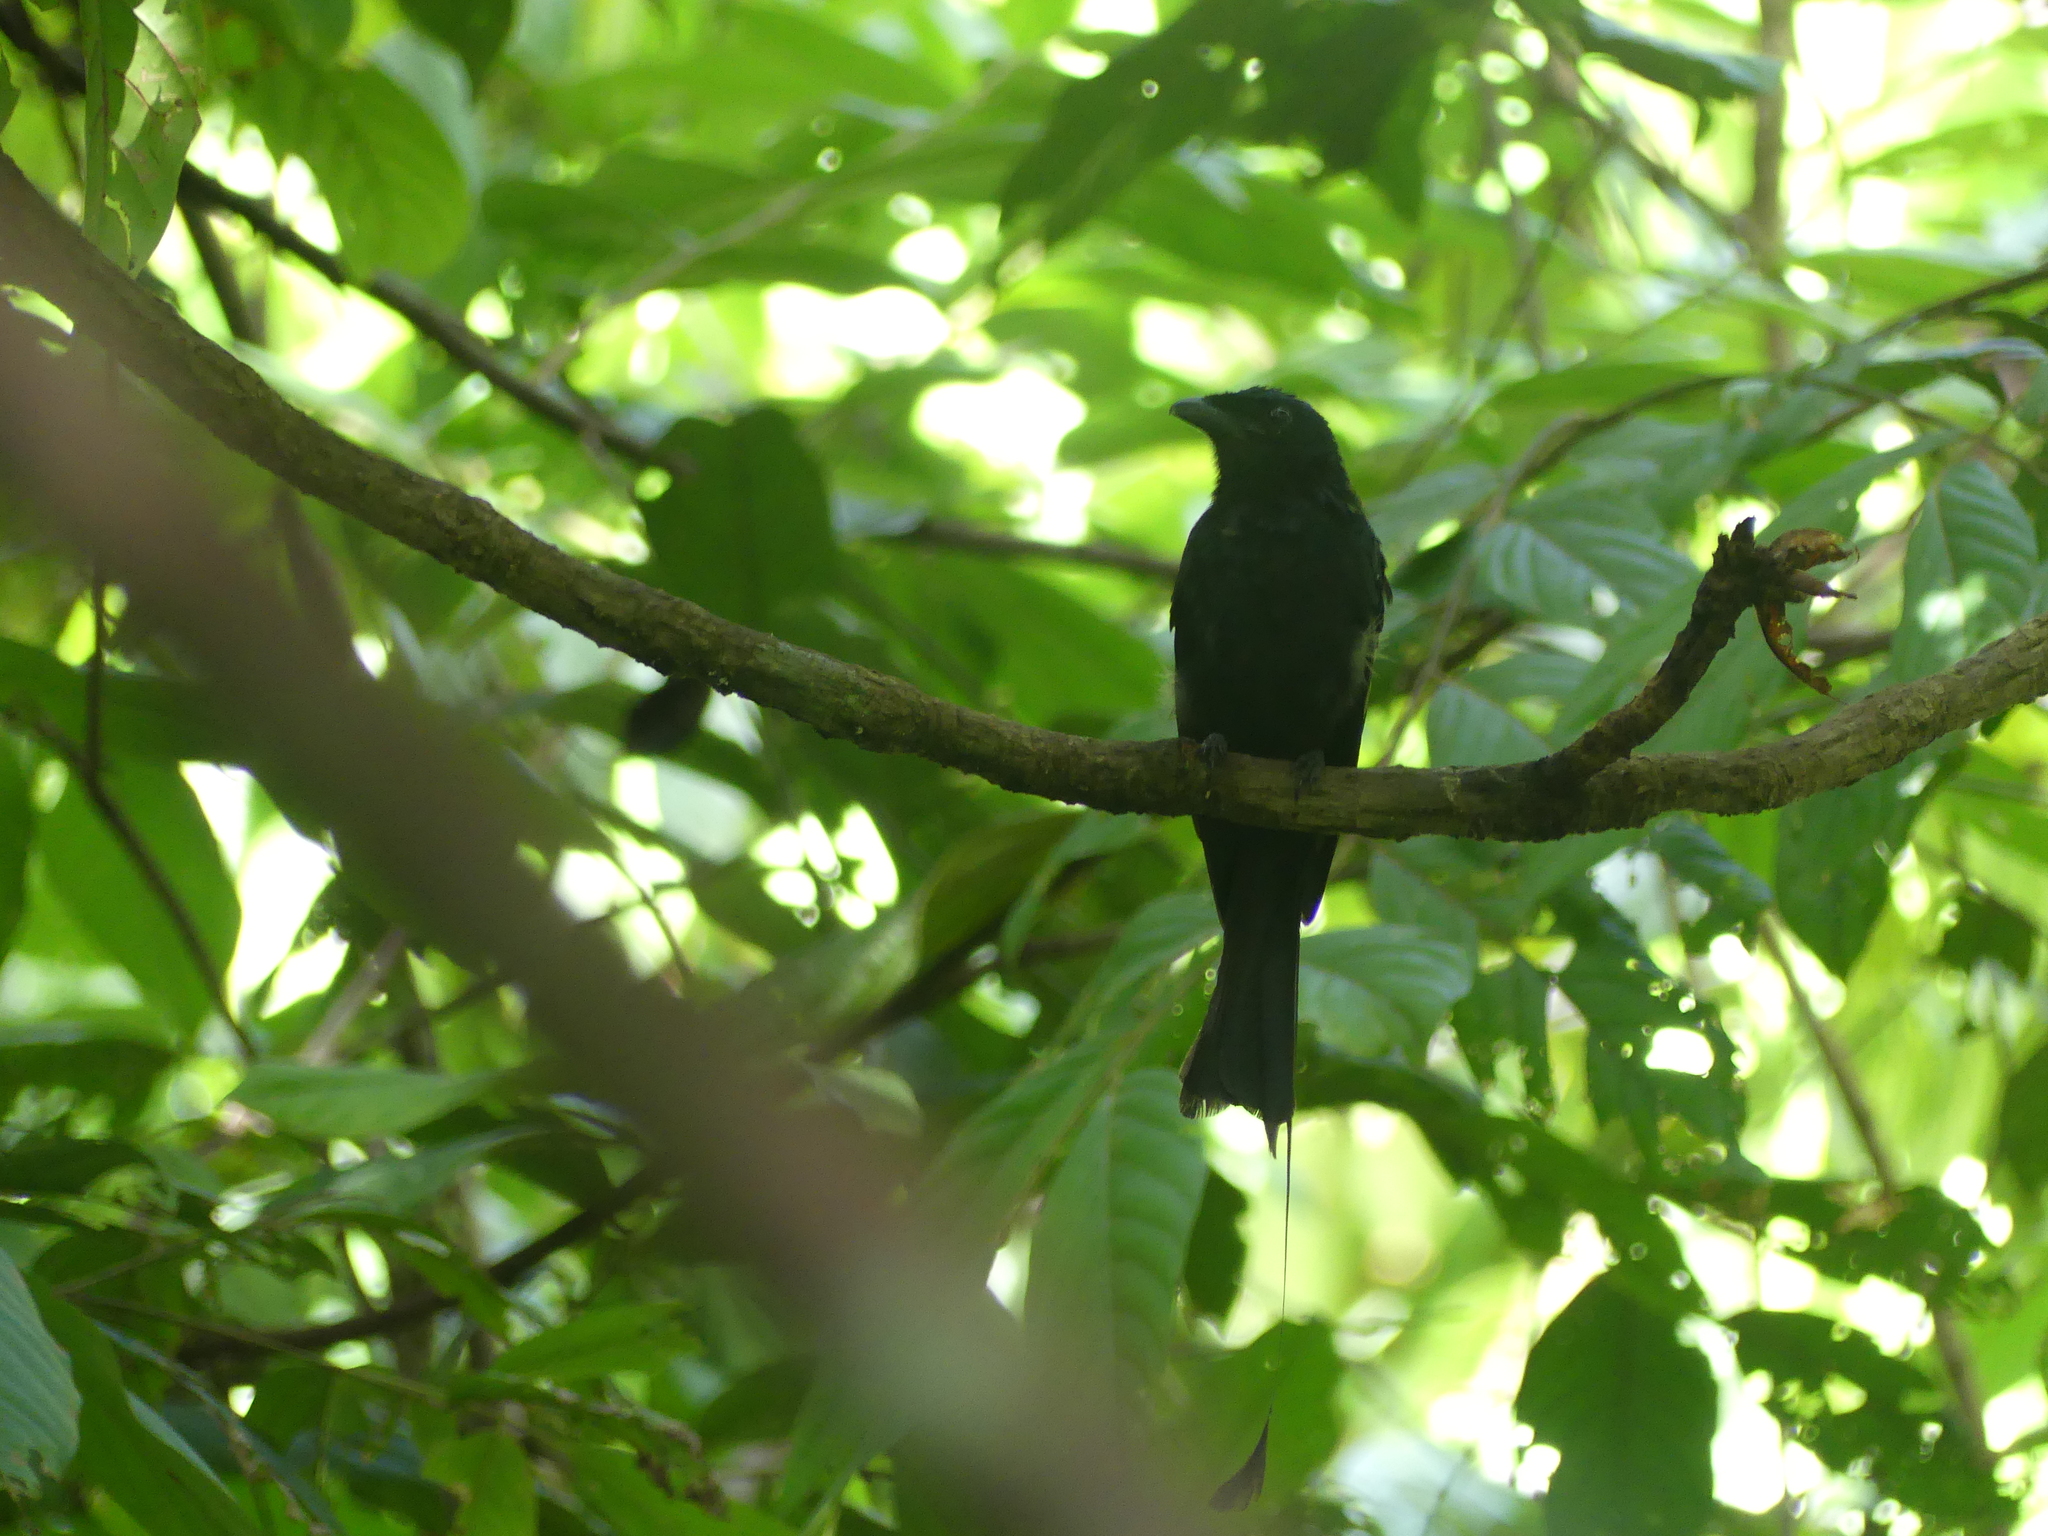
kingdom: Animalia
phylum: Chordata
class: Aves
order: Passeriformes
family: Dicruridae
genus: Dicrurus
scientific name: Dicrurus paradiseus
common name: Greater racket-tailed drongo
